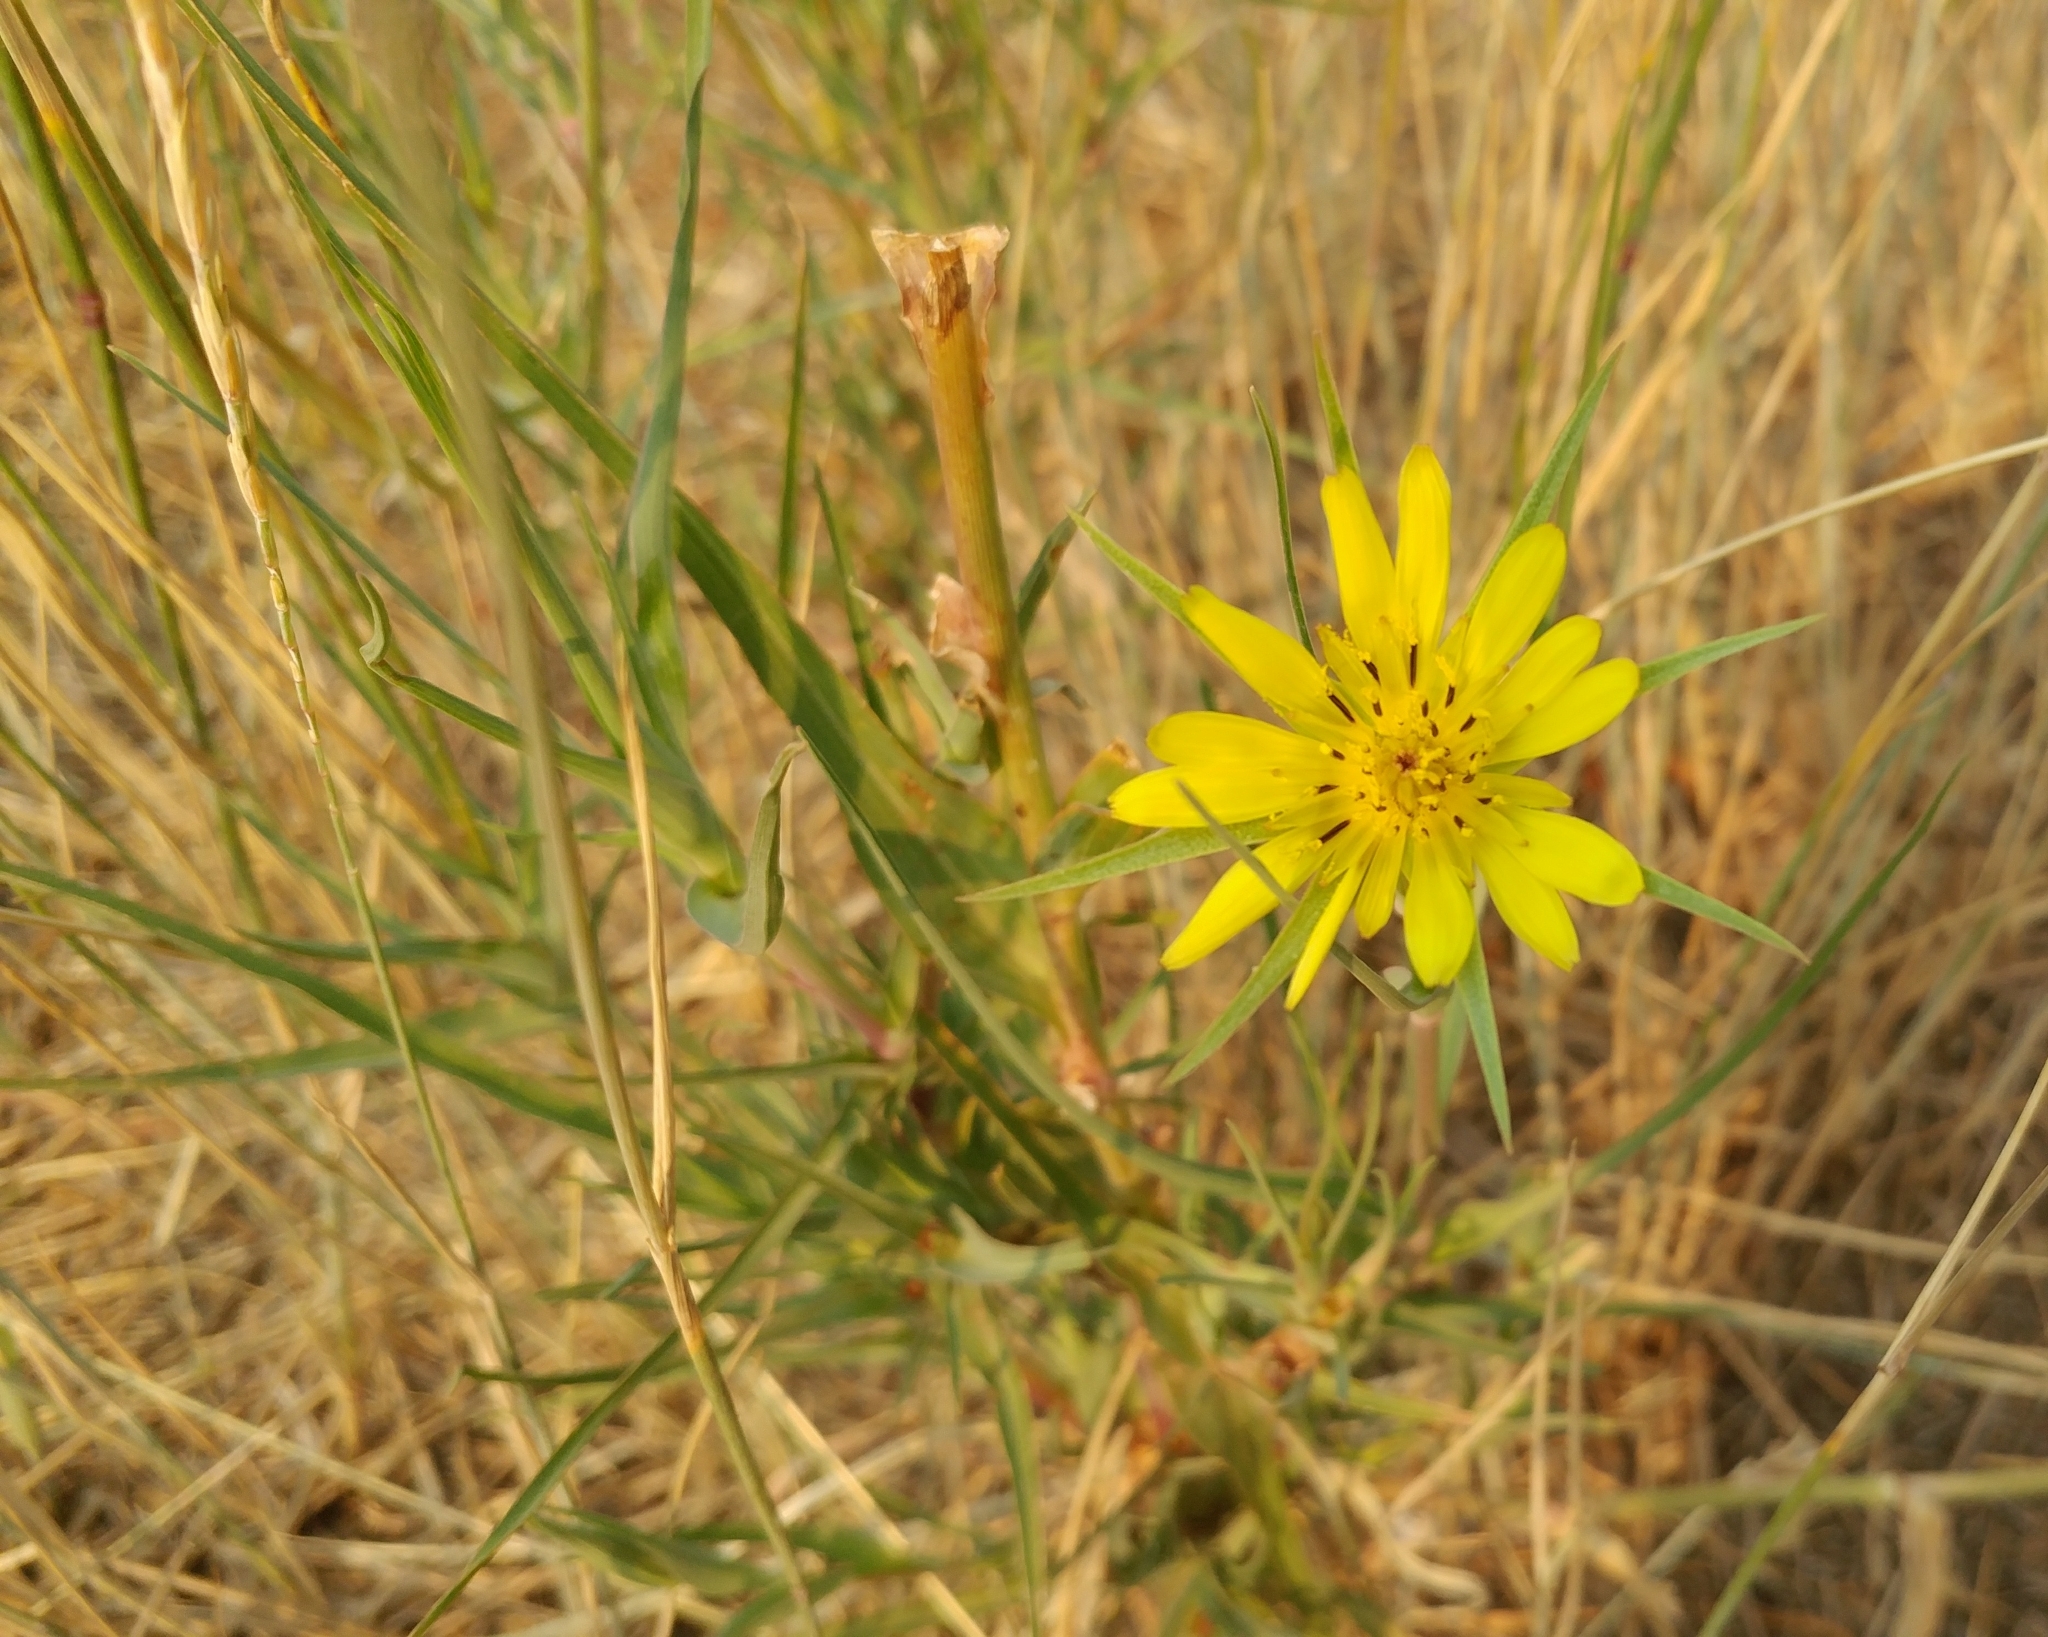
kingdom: Plantae
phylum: Tracheophyta
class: Magnoliopsida
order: Asterales
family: Asteraceae
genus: Tragopogon
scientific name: Tragopogon dubius
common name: Yellow salsify
